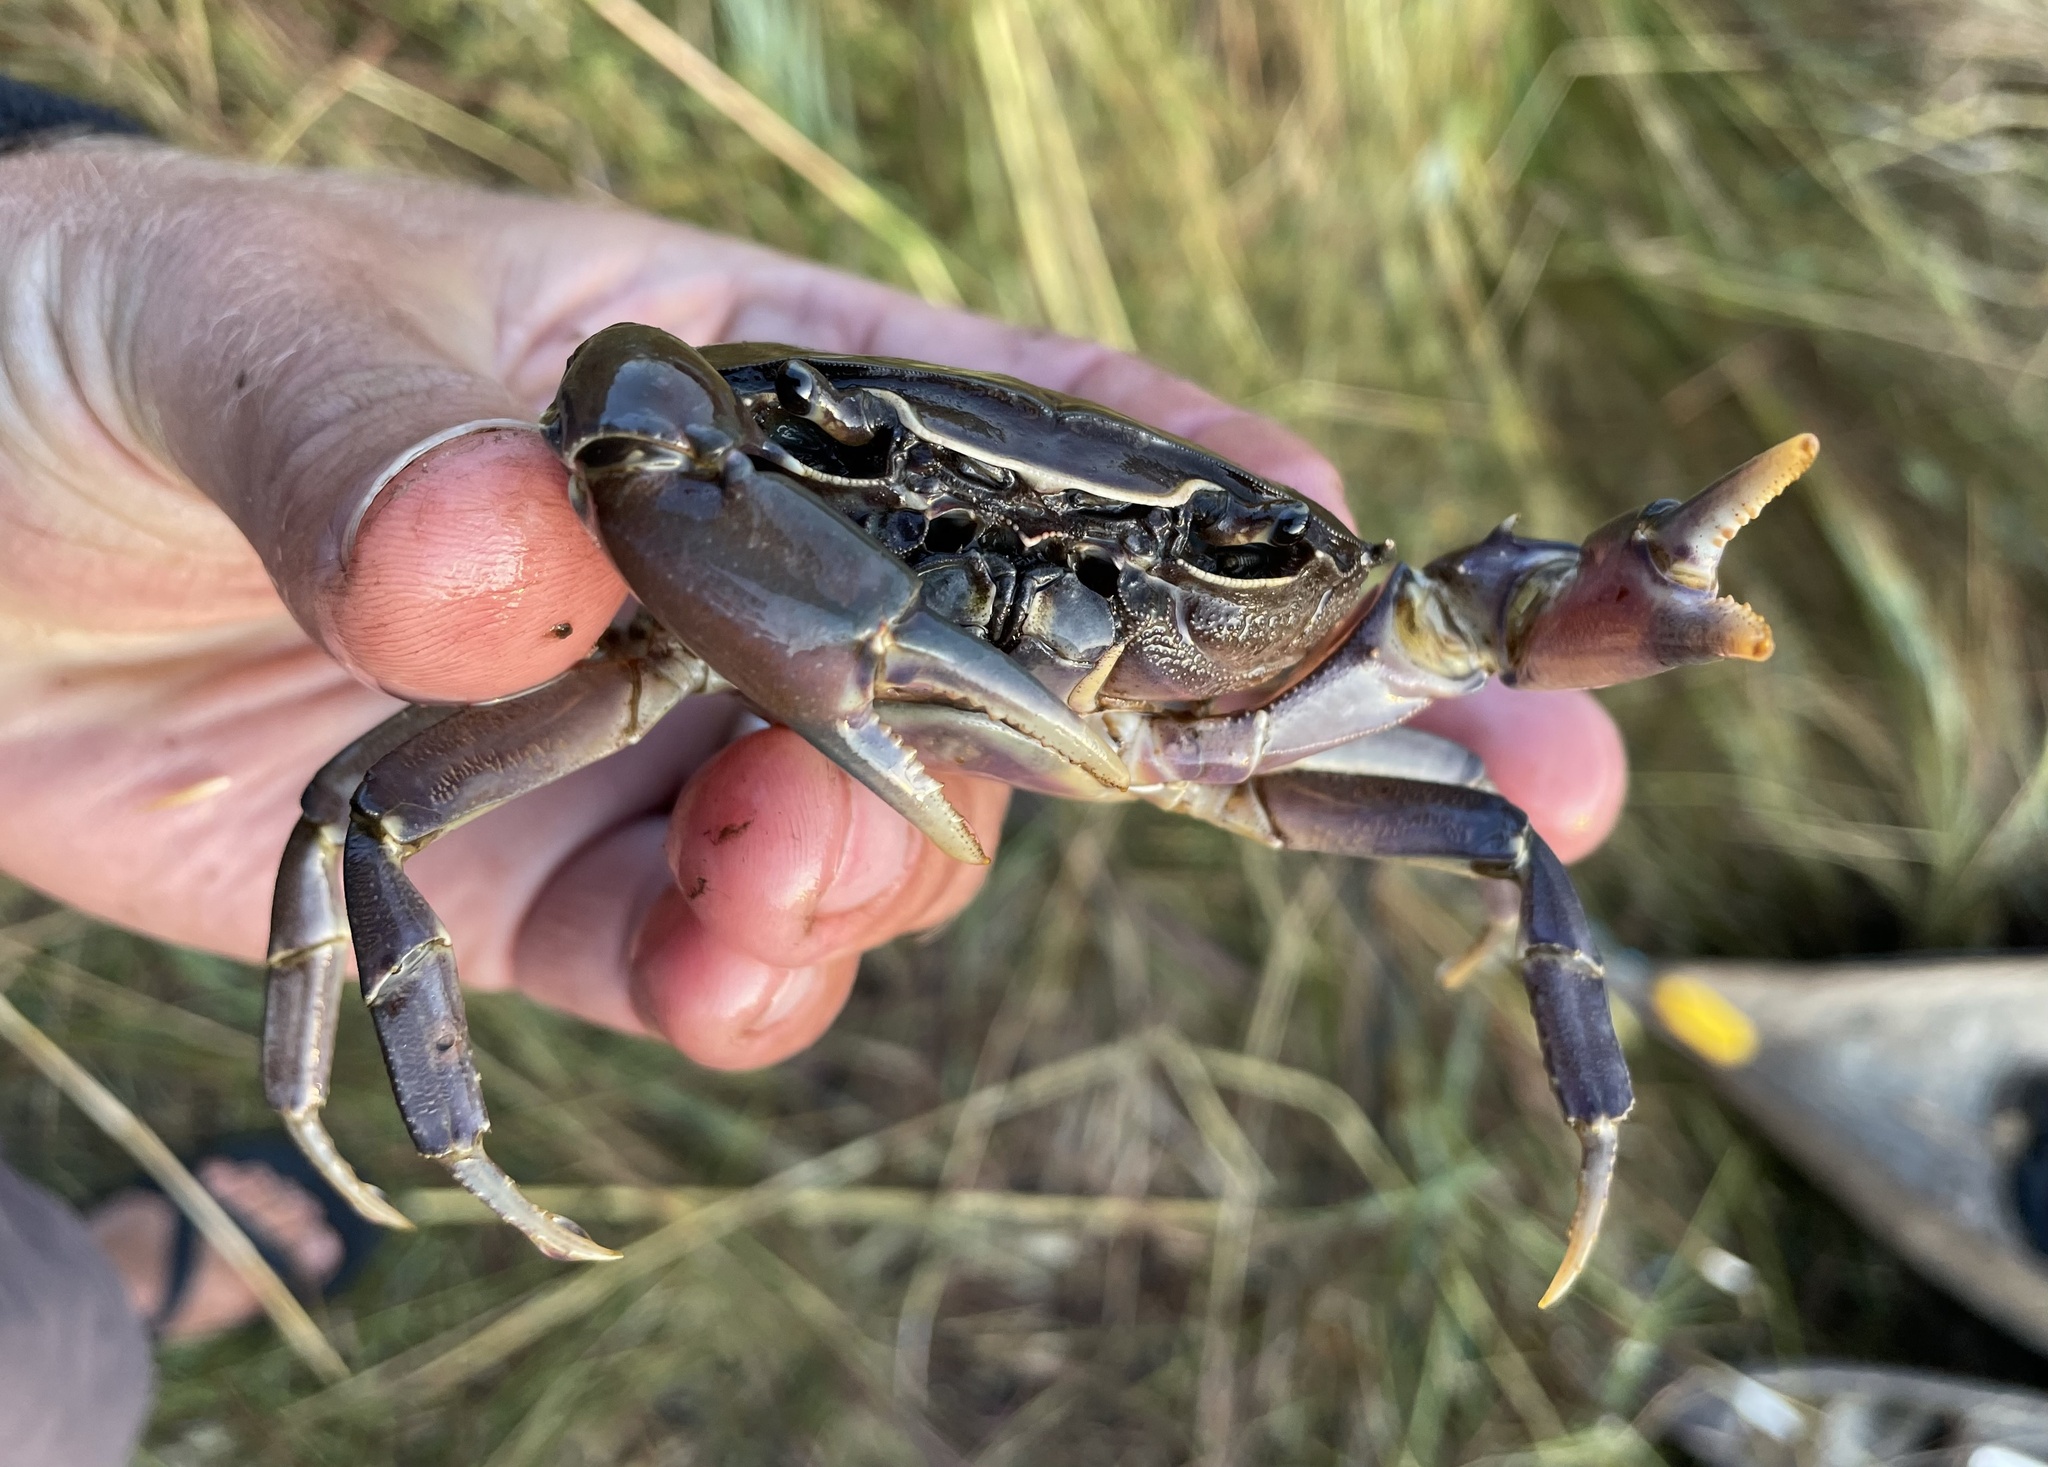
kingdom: Animalia
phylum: Arthropoda
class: Malacostraca
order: Decapoda
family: Potamonautidae
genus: Potamonautes
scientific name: Potamonautes bayonianus
